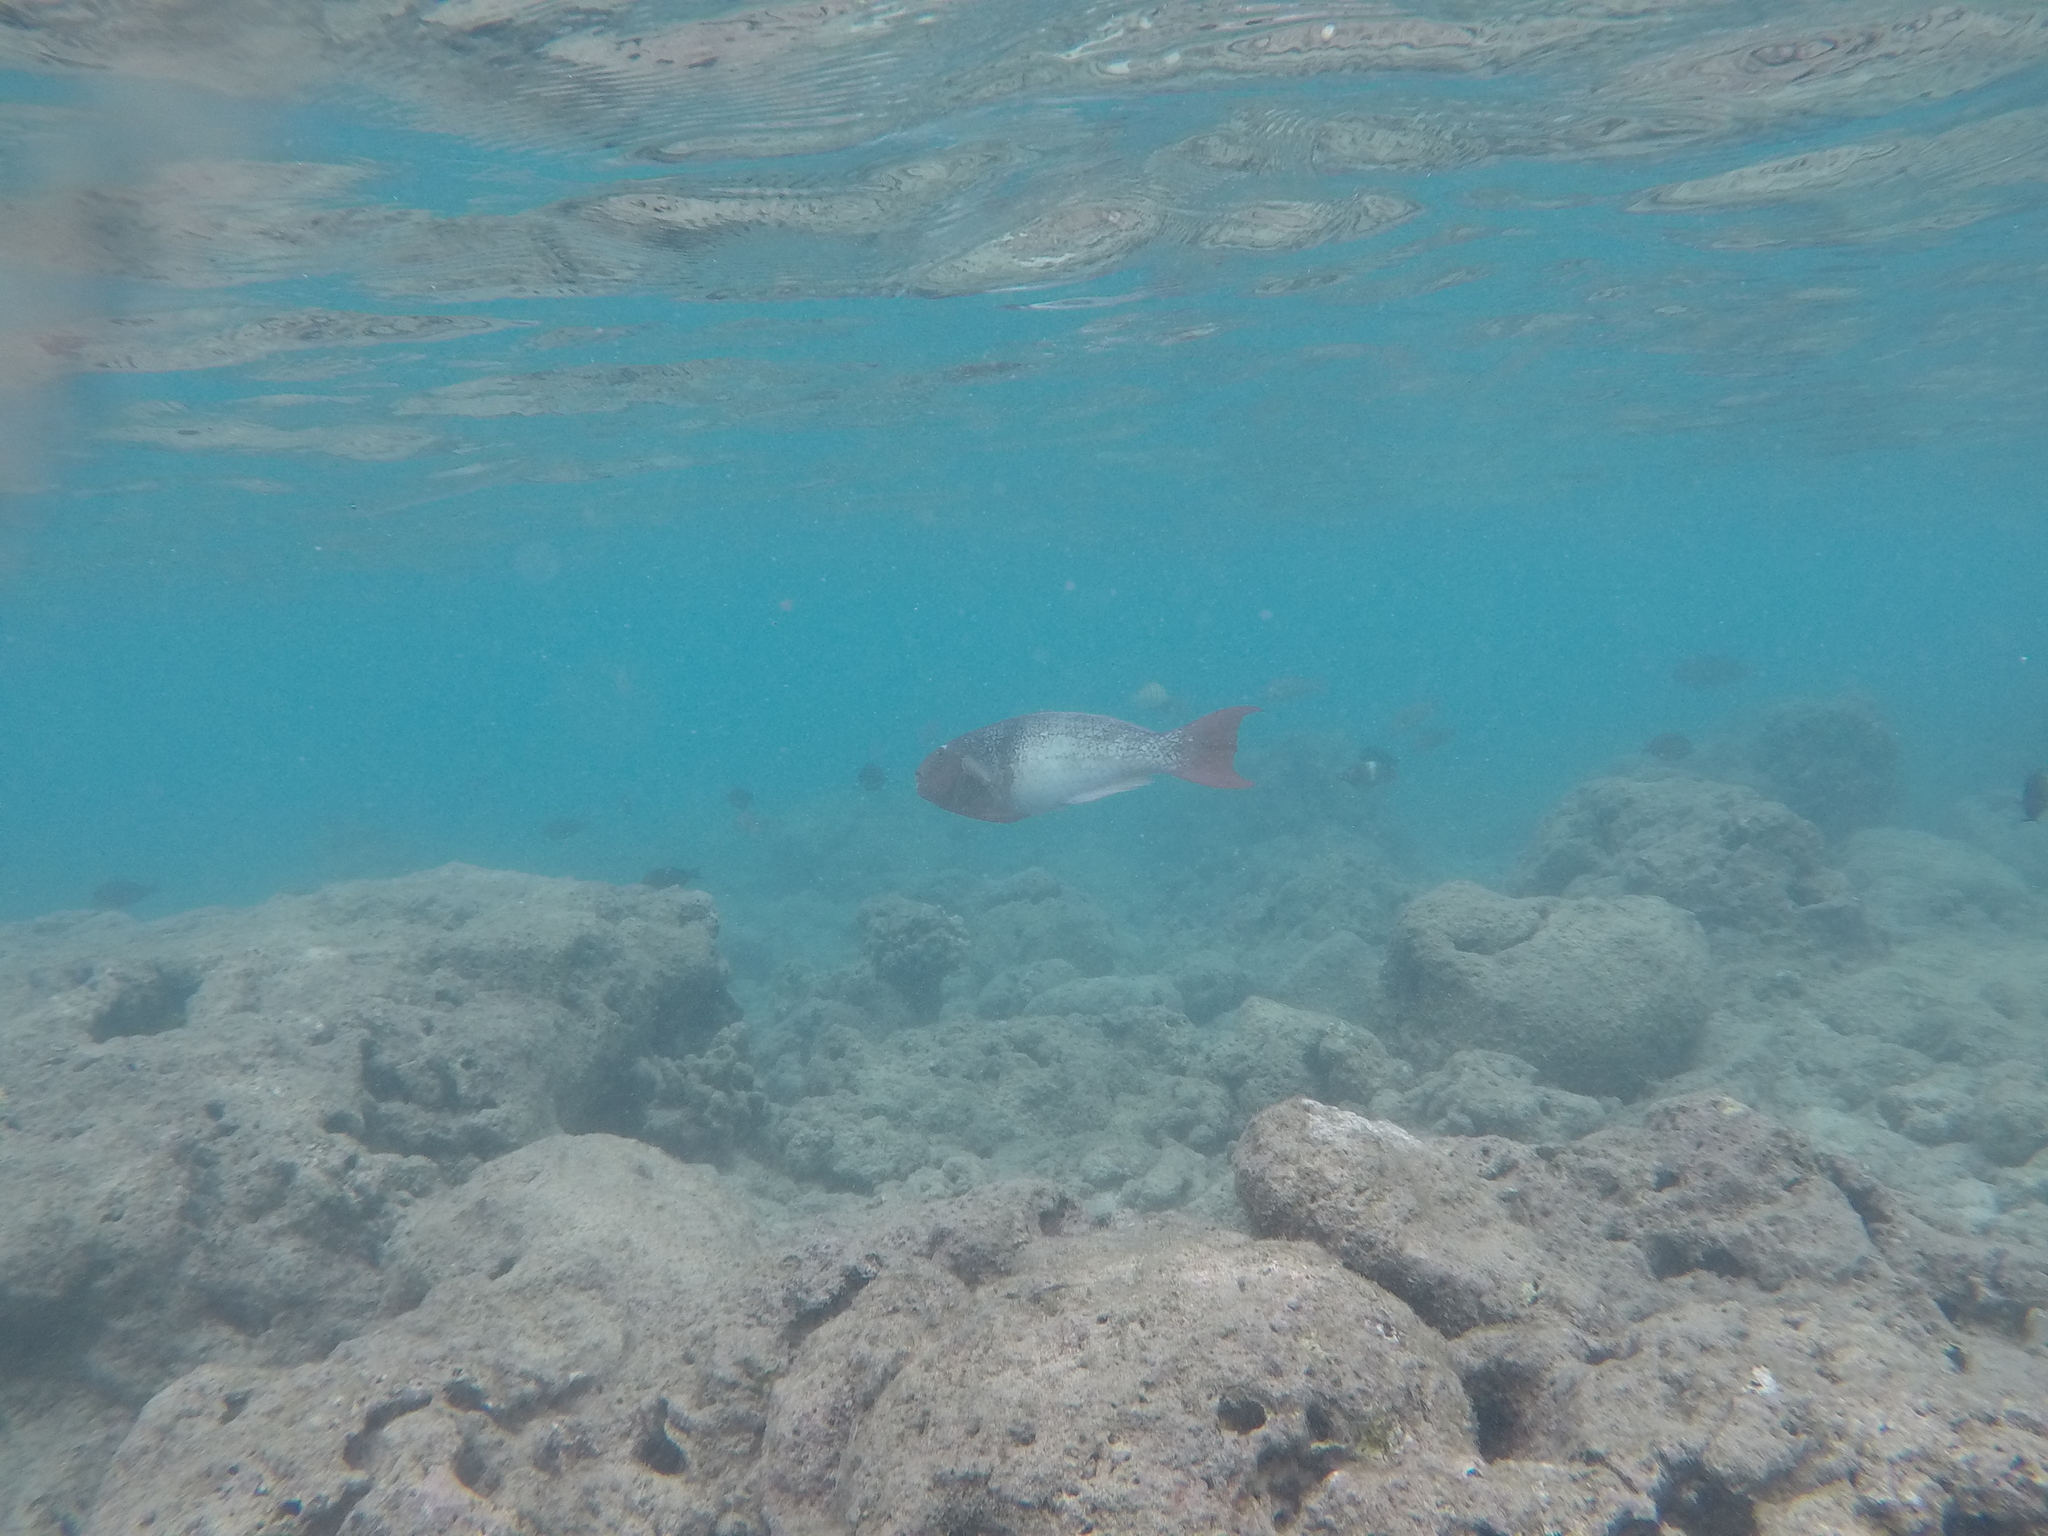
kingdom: Animalia
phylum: Chordata
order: Perciformes
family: Scaridae
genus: Scarus
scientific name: Scarus rubroviolaceus
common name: Ember parrotfish
